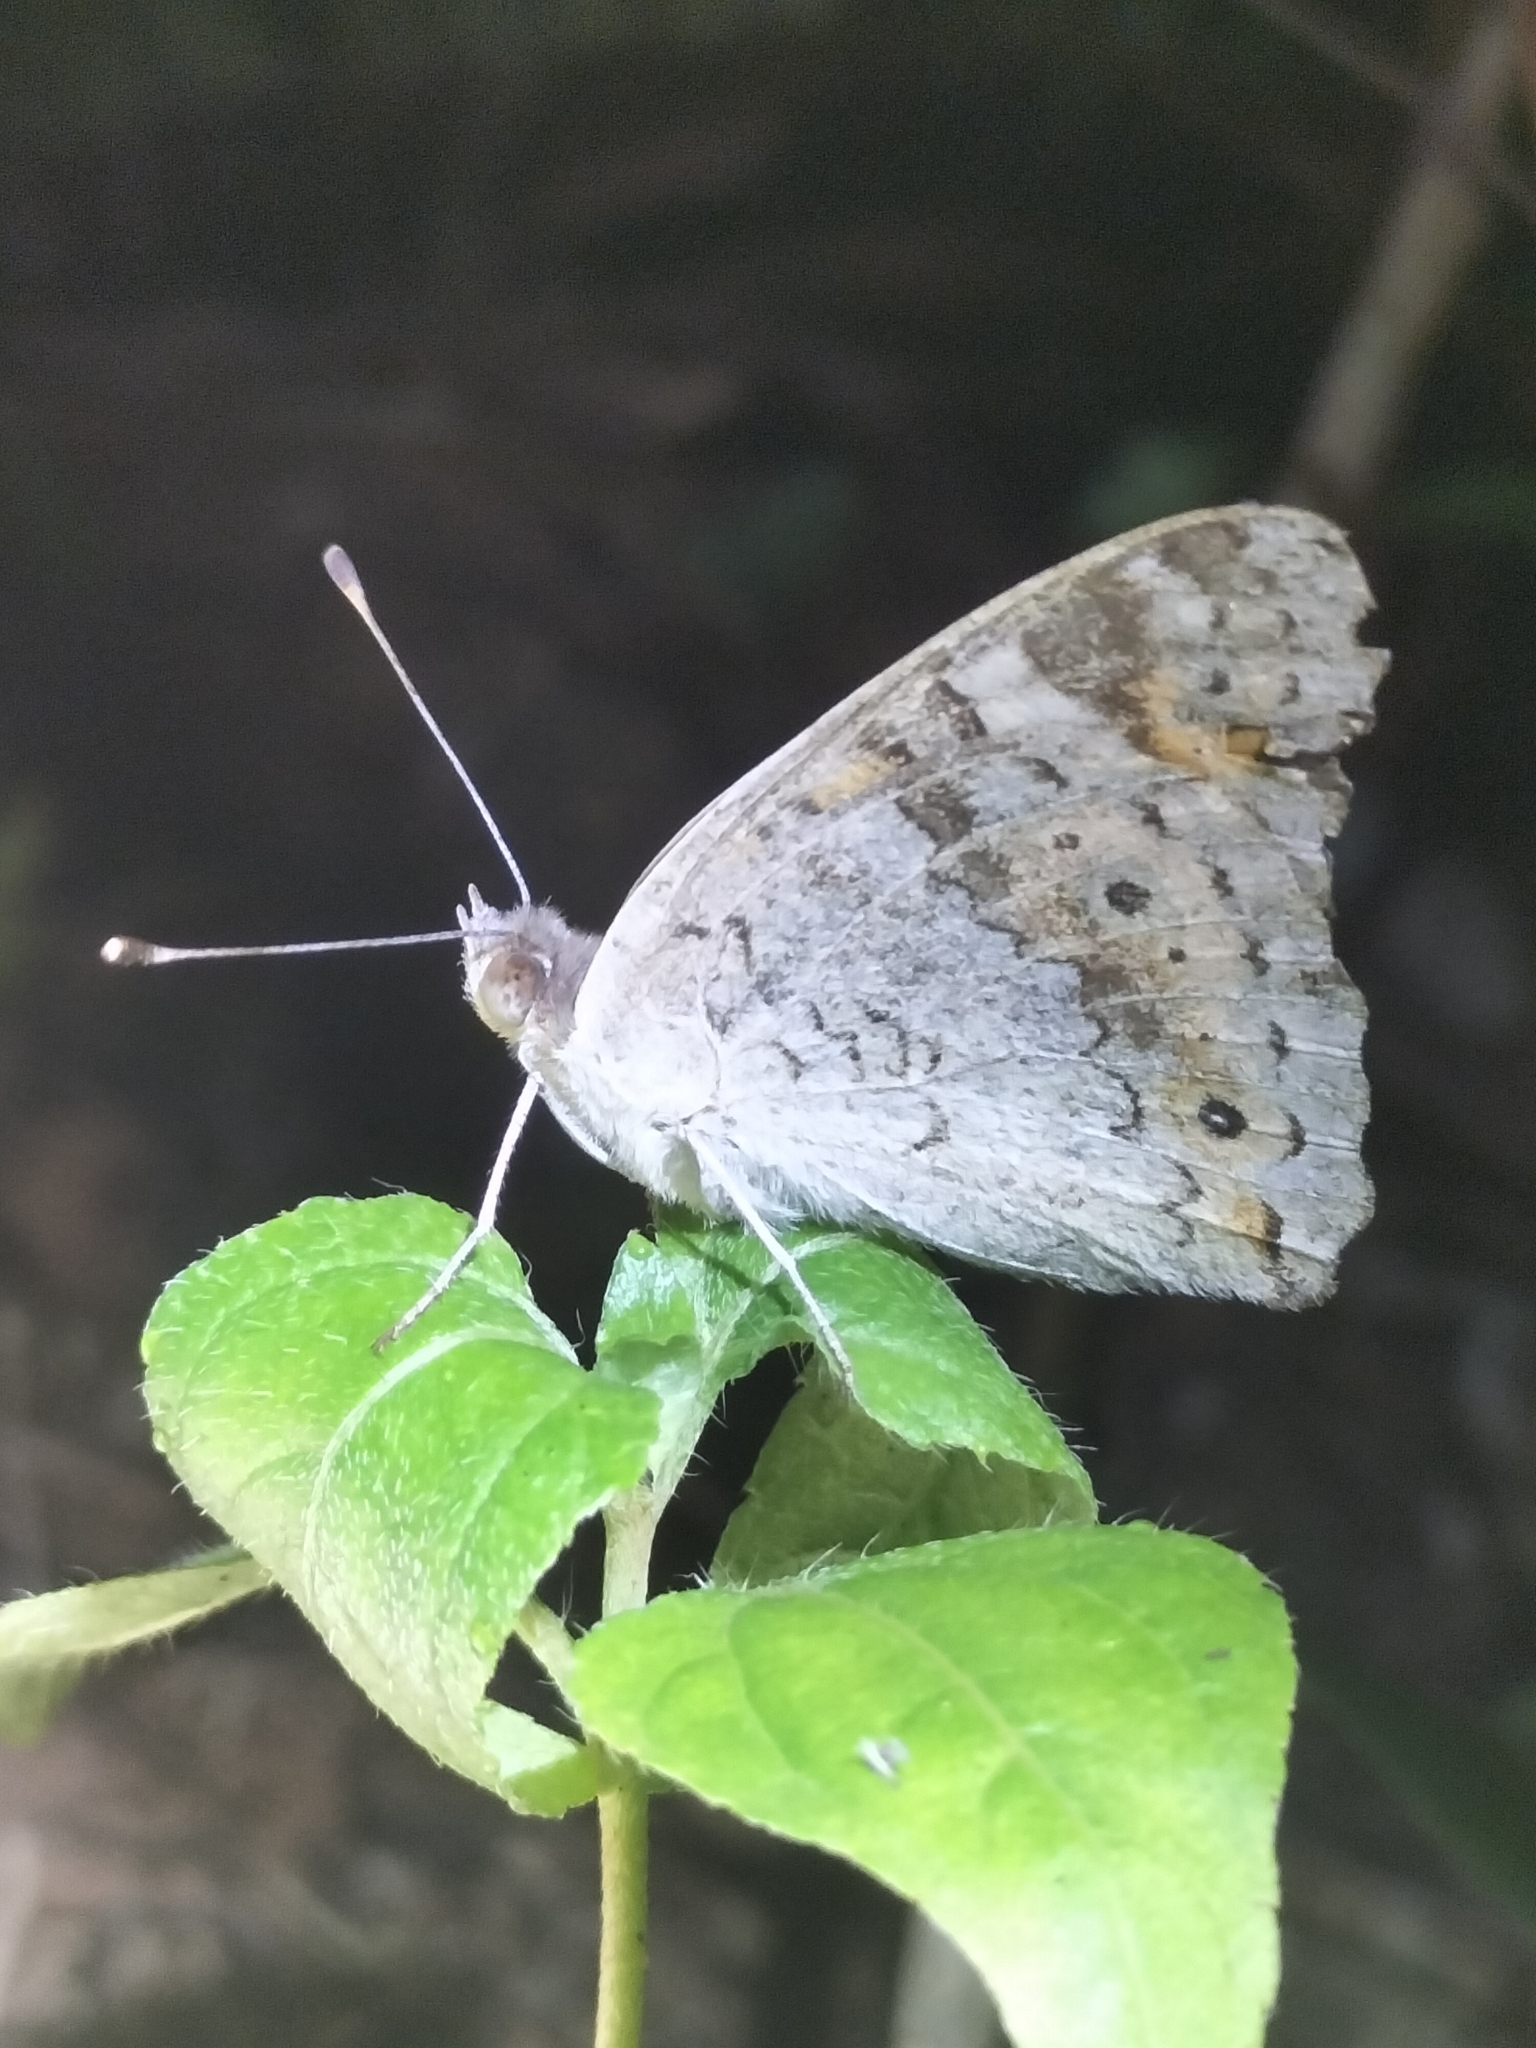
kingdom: Animalia
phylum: Arthropoda
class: Insecta
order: Lepidoptera
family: Nymphalidae
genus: Junonia
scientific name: Junonia villida
